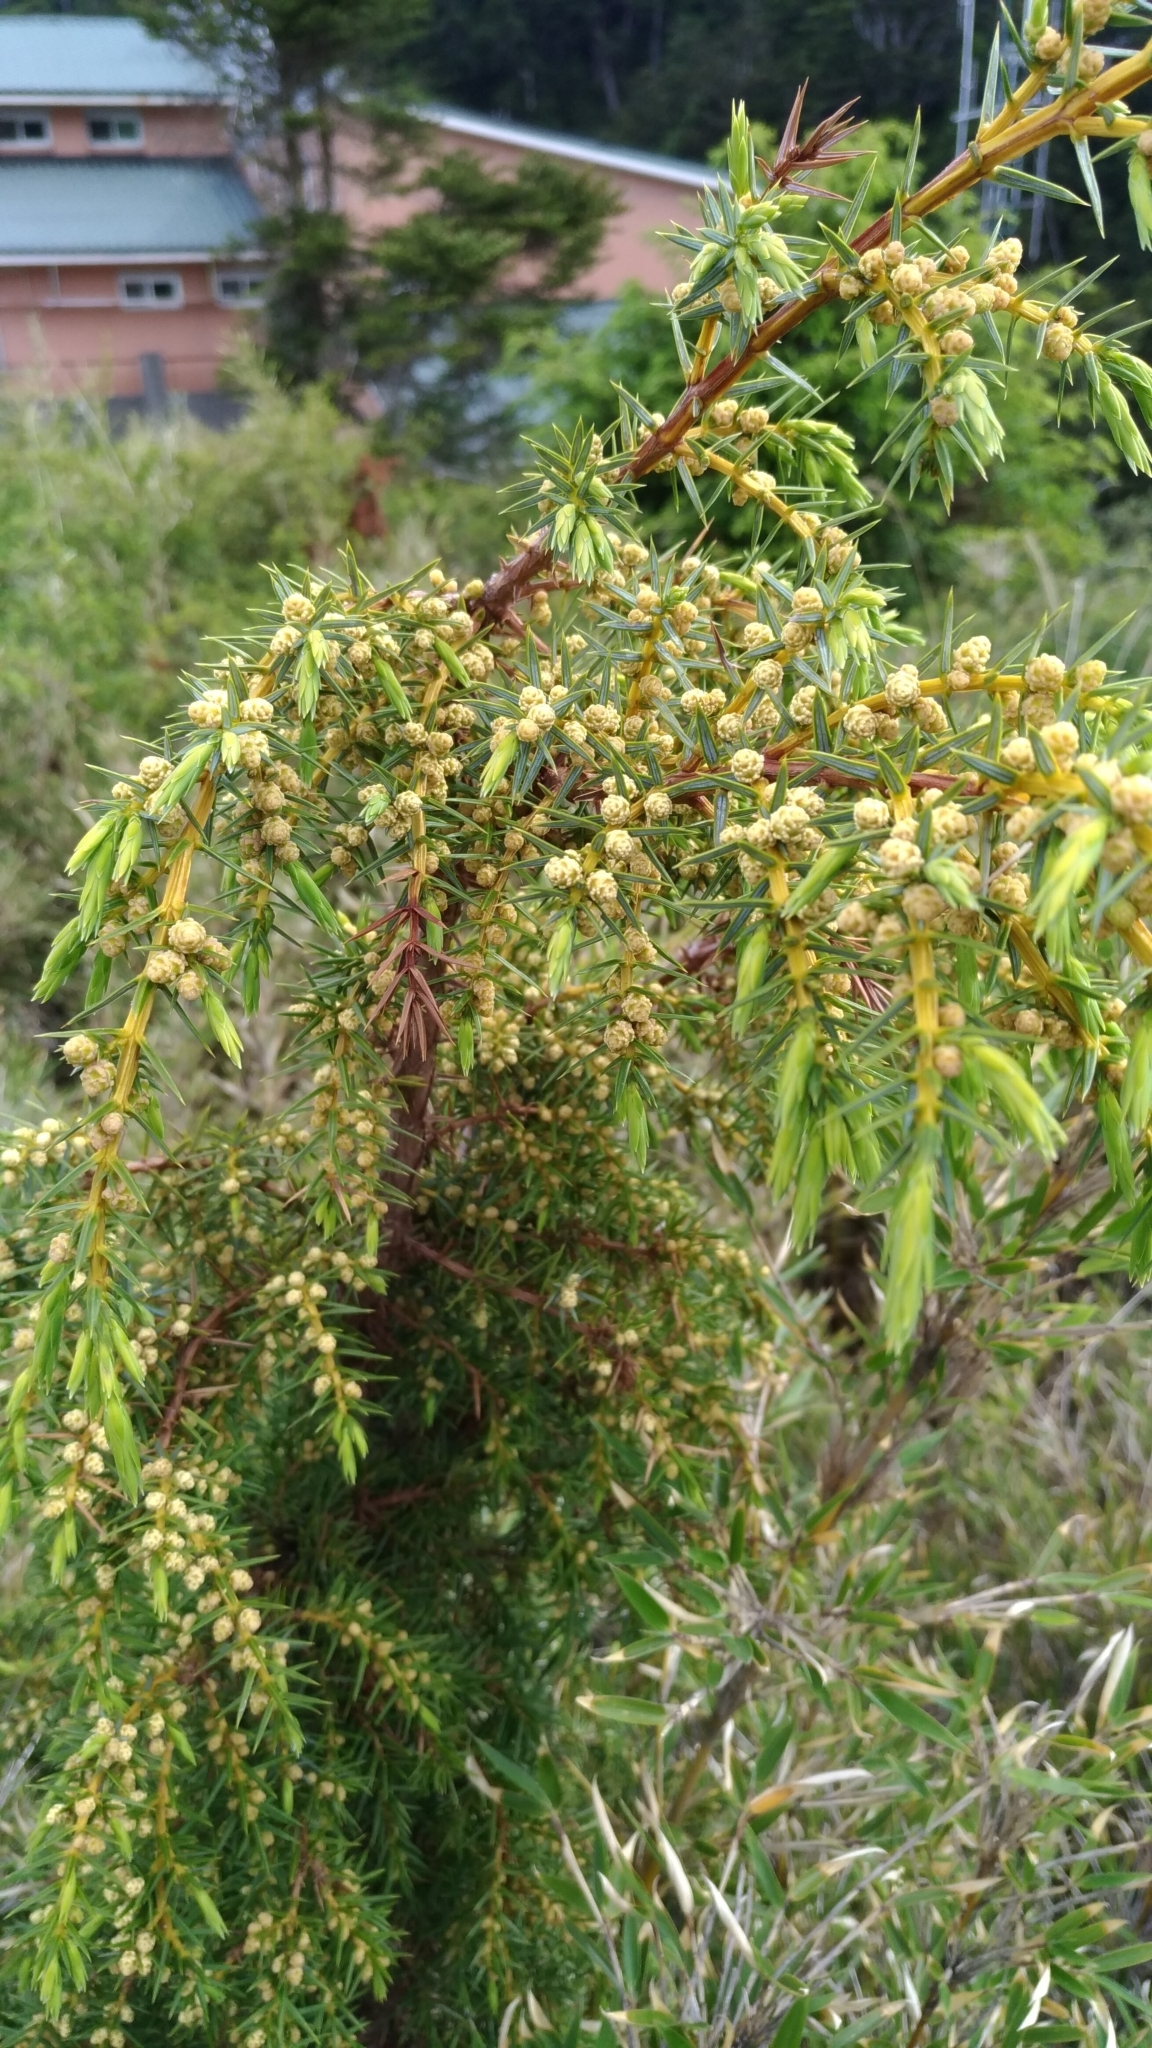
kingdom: Plantae
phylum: Tracheophyta
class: Pinopsida
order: Pinales
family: Cupressaceae
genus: Juniperus
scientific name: Juniperus formosana
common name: Formosan juniper
